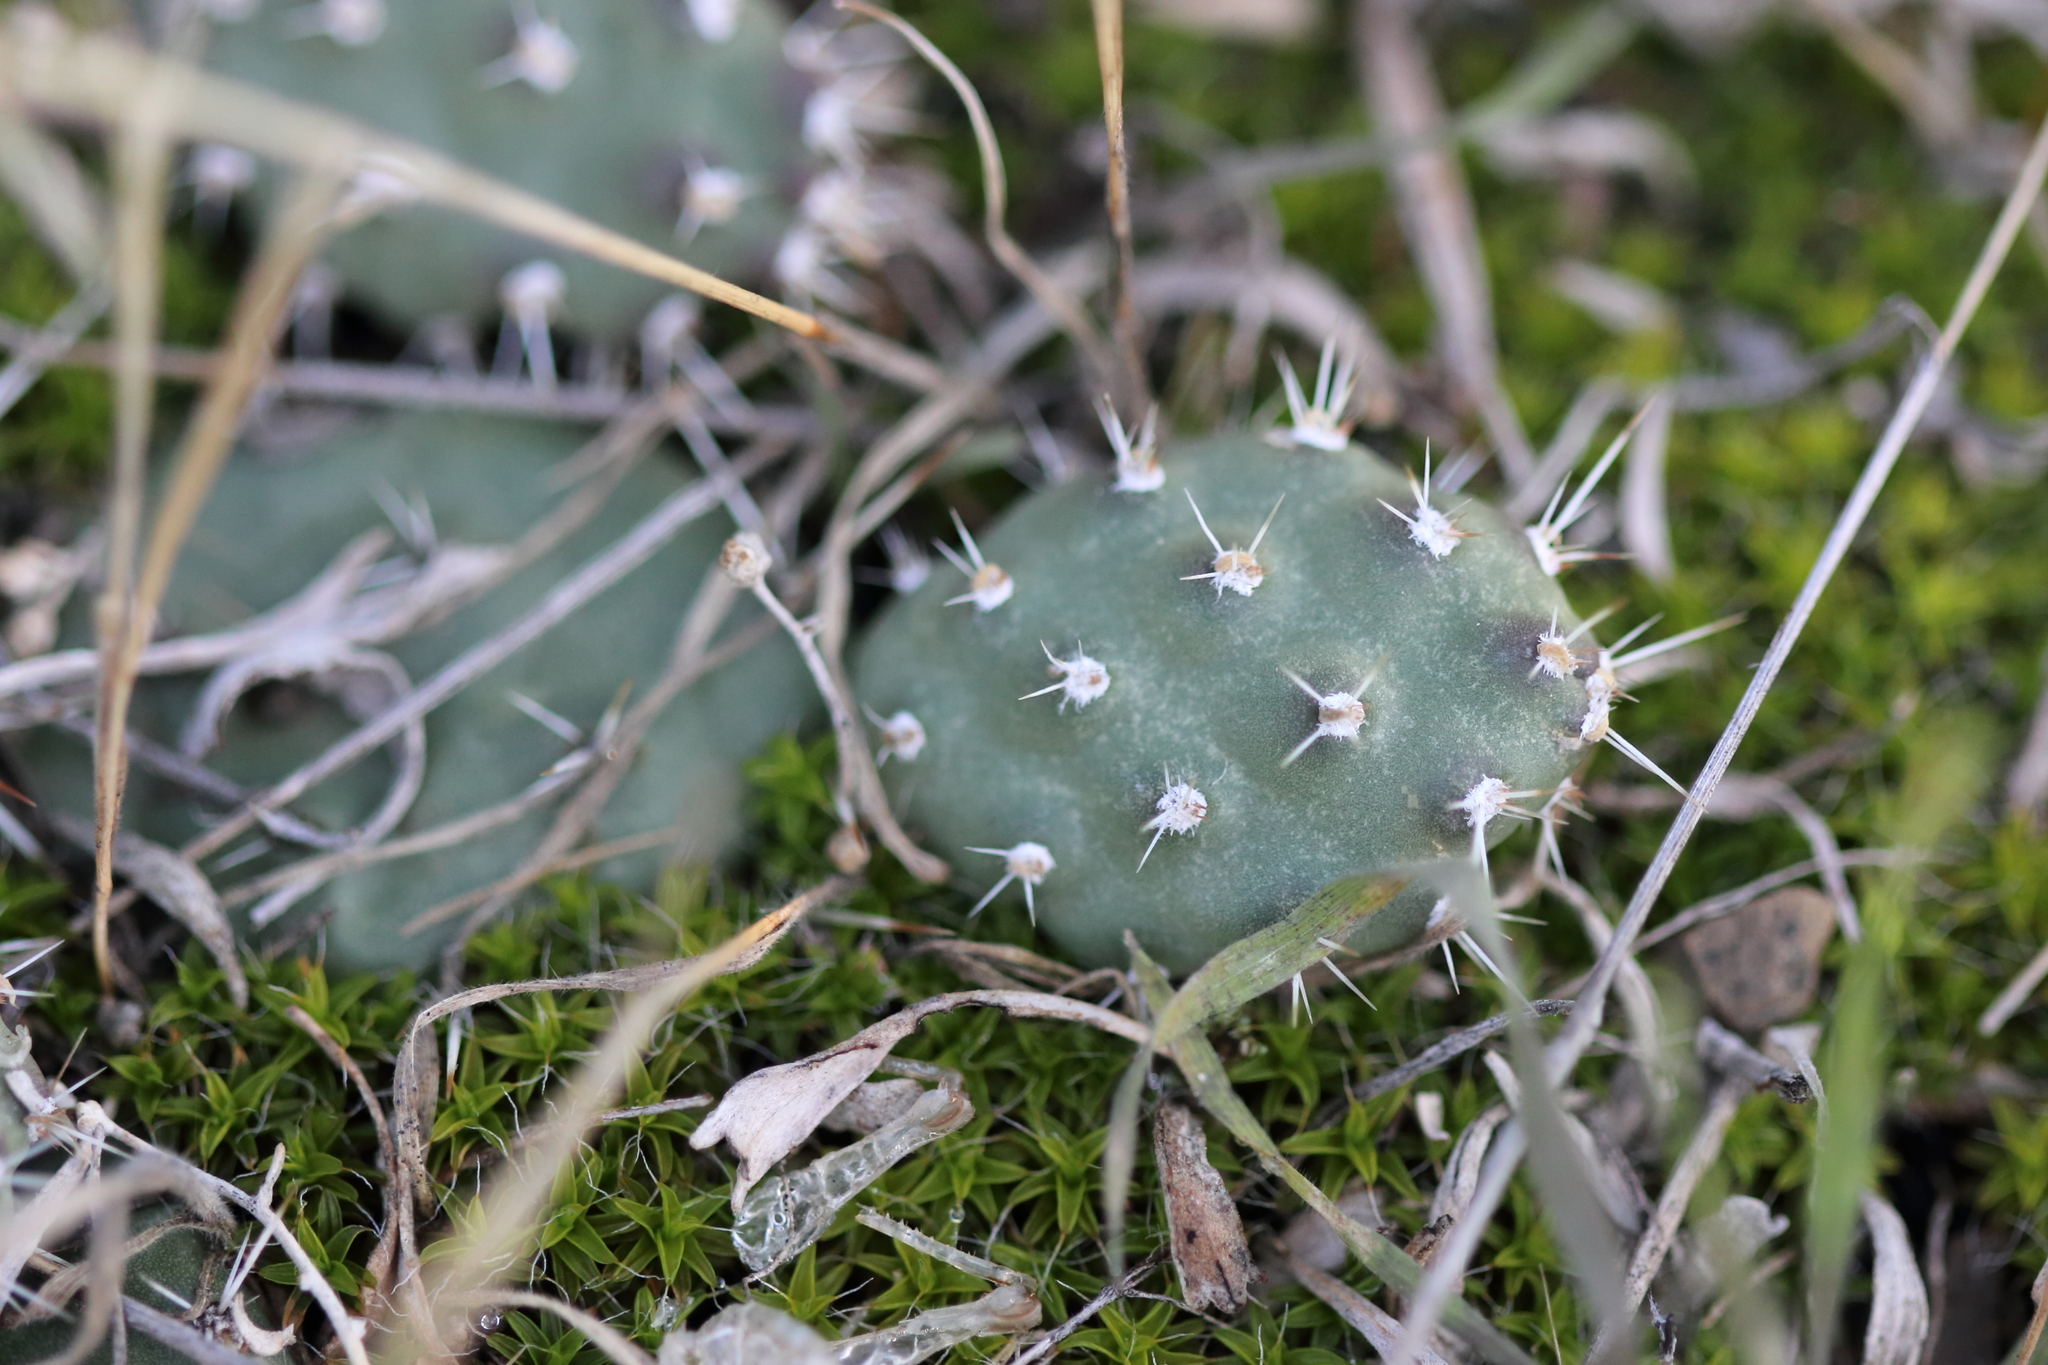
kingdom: Plantae
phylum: Tracheophyta
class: Magnoliopsida
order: Caryophyllales
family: Cactaceae
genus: Opuntia
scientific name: Opuntia fragilis
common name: Brittle cactus
